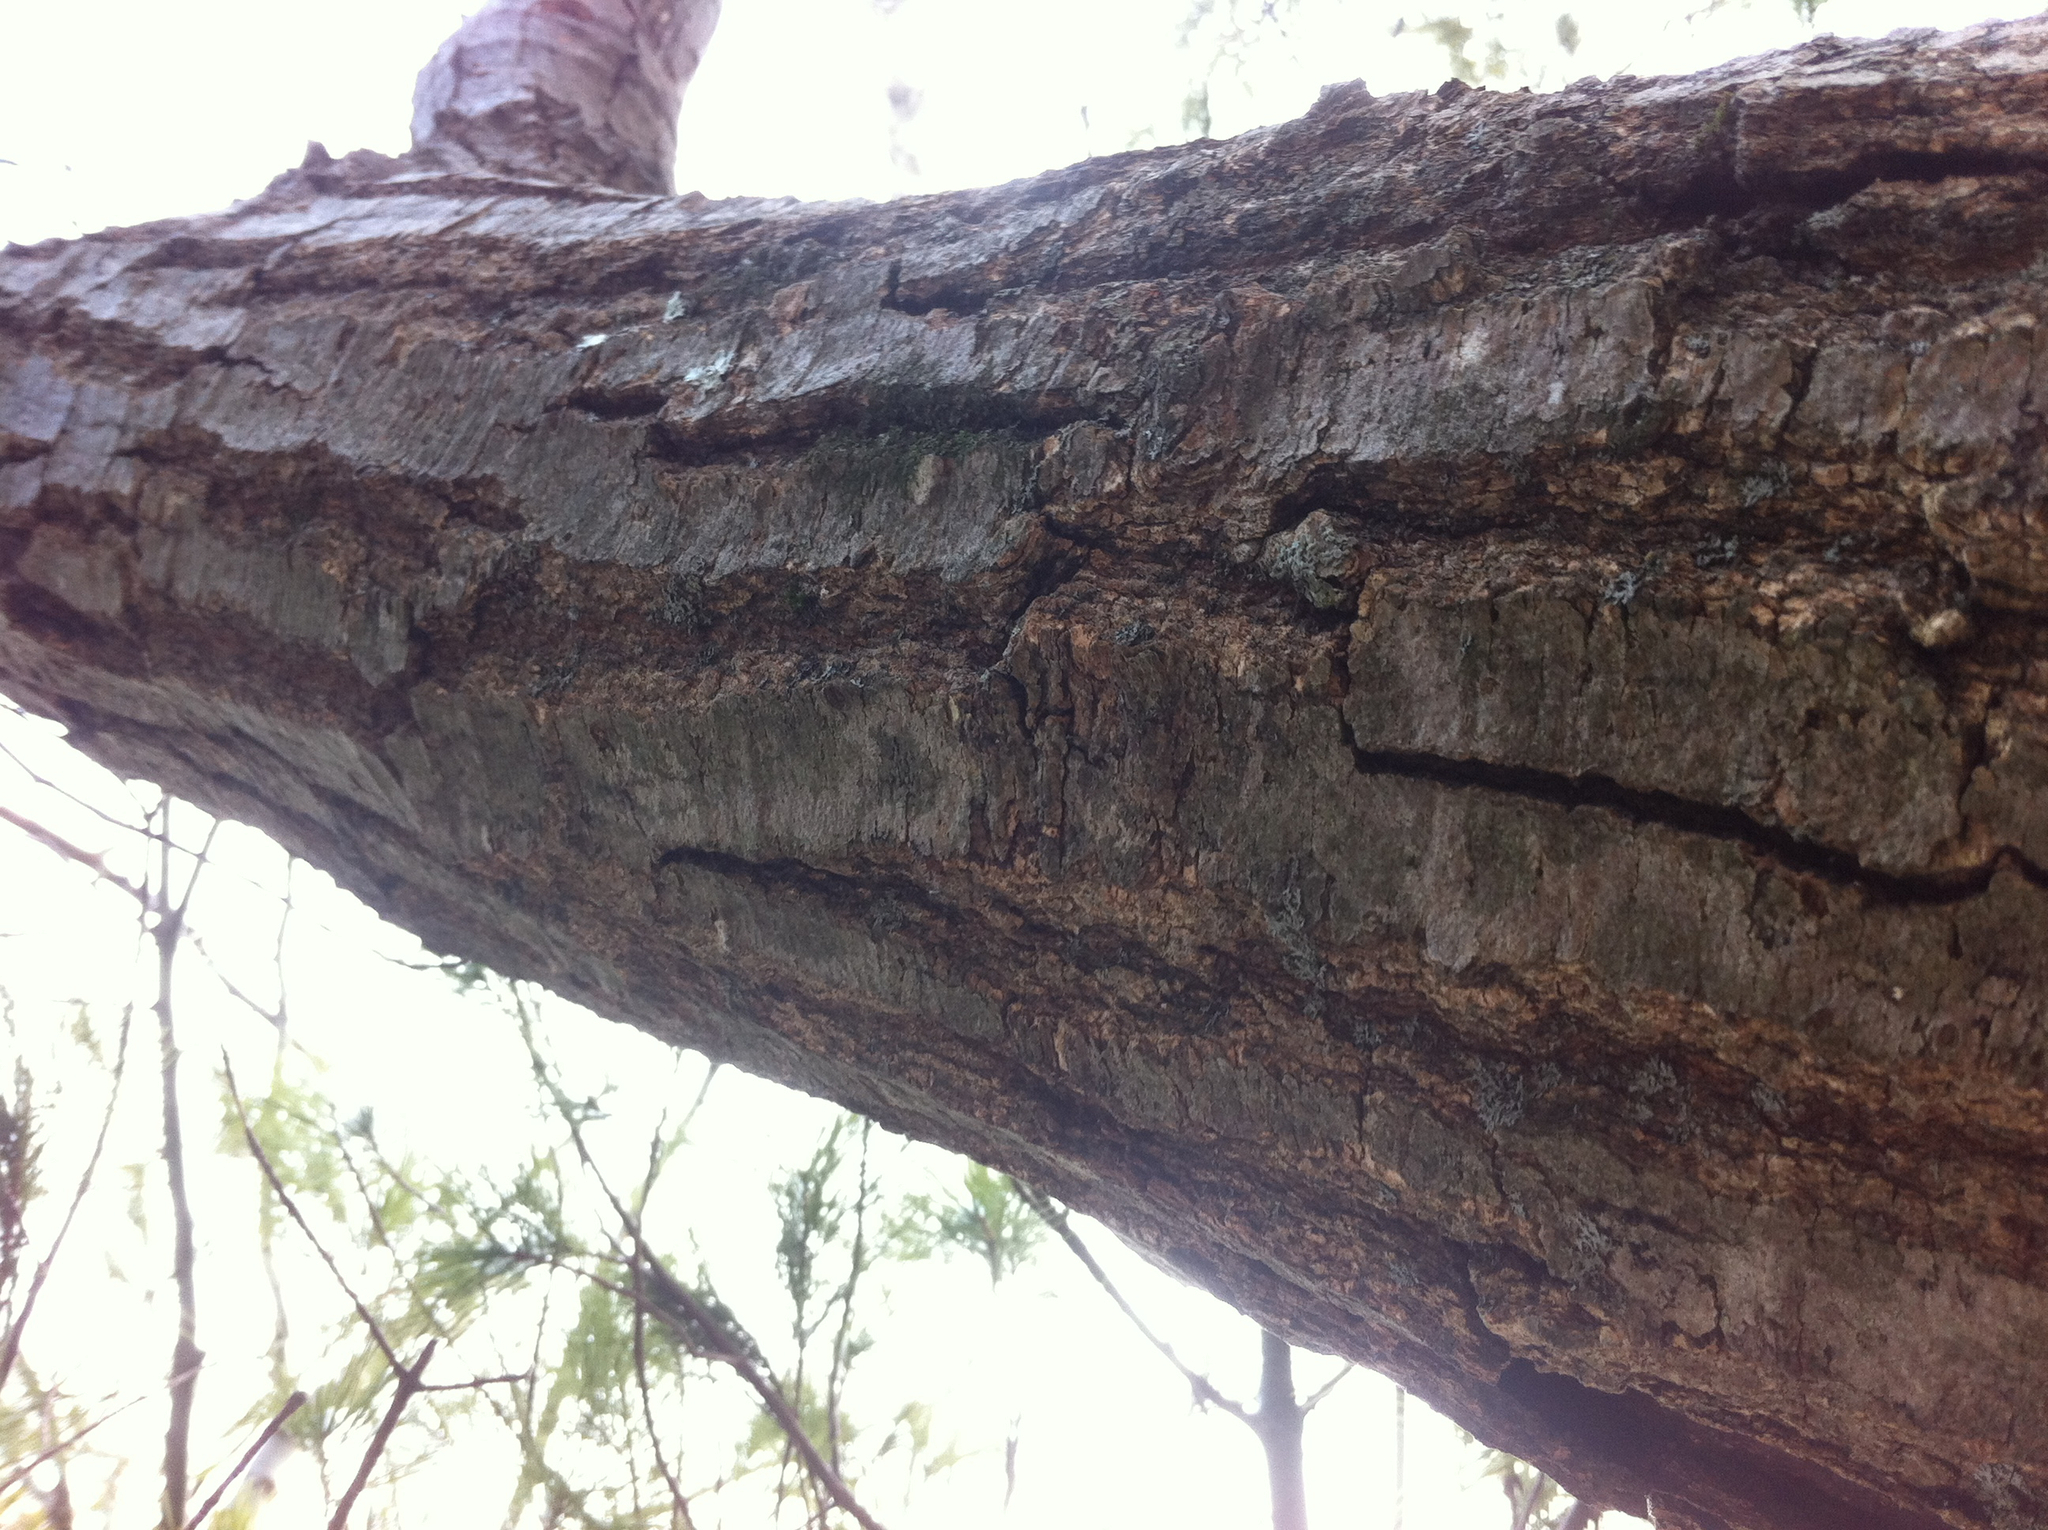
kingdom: Plantae
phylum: Tracheophyta
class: Magnoliopsida
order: Fagales
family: Fagaceae
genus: Quercus
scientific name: Quercus rubra
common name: Red oak
